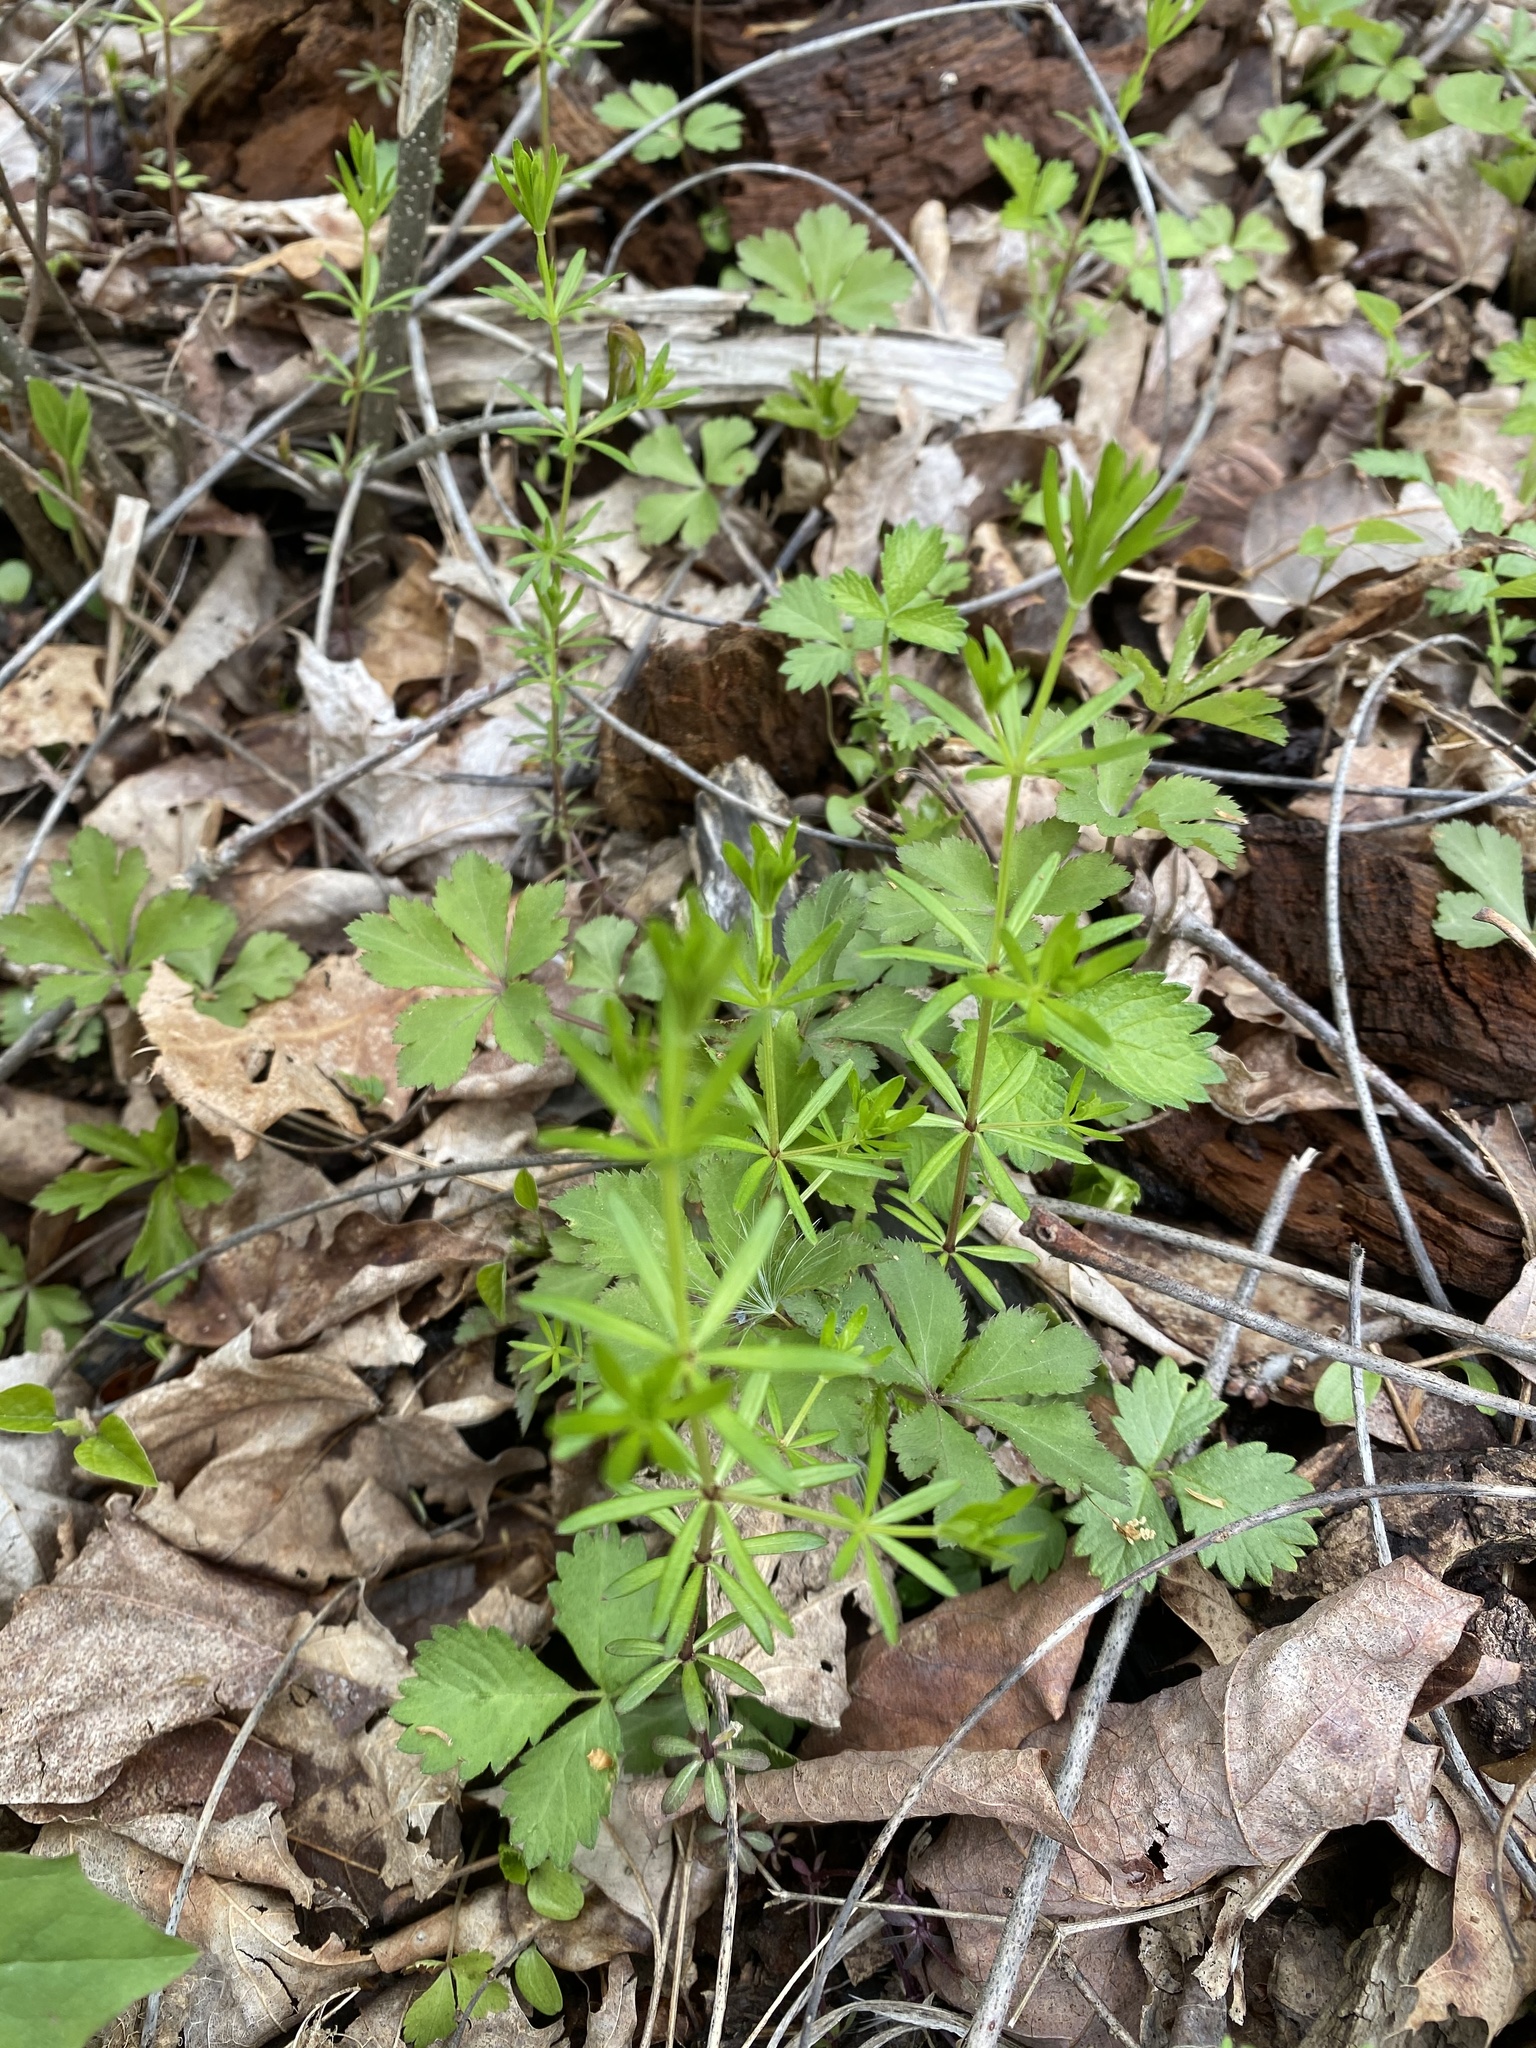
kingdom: Plantae
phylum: Tracheophyta
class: Magnoliopsida
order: Gentianales
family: Rubiaceae
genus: Galium
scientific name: Galium concinnum
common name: Shining bedstraw
